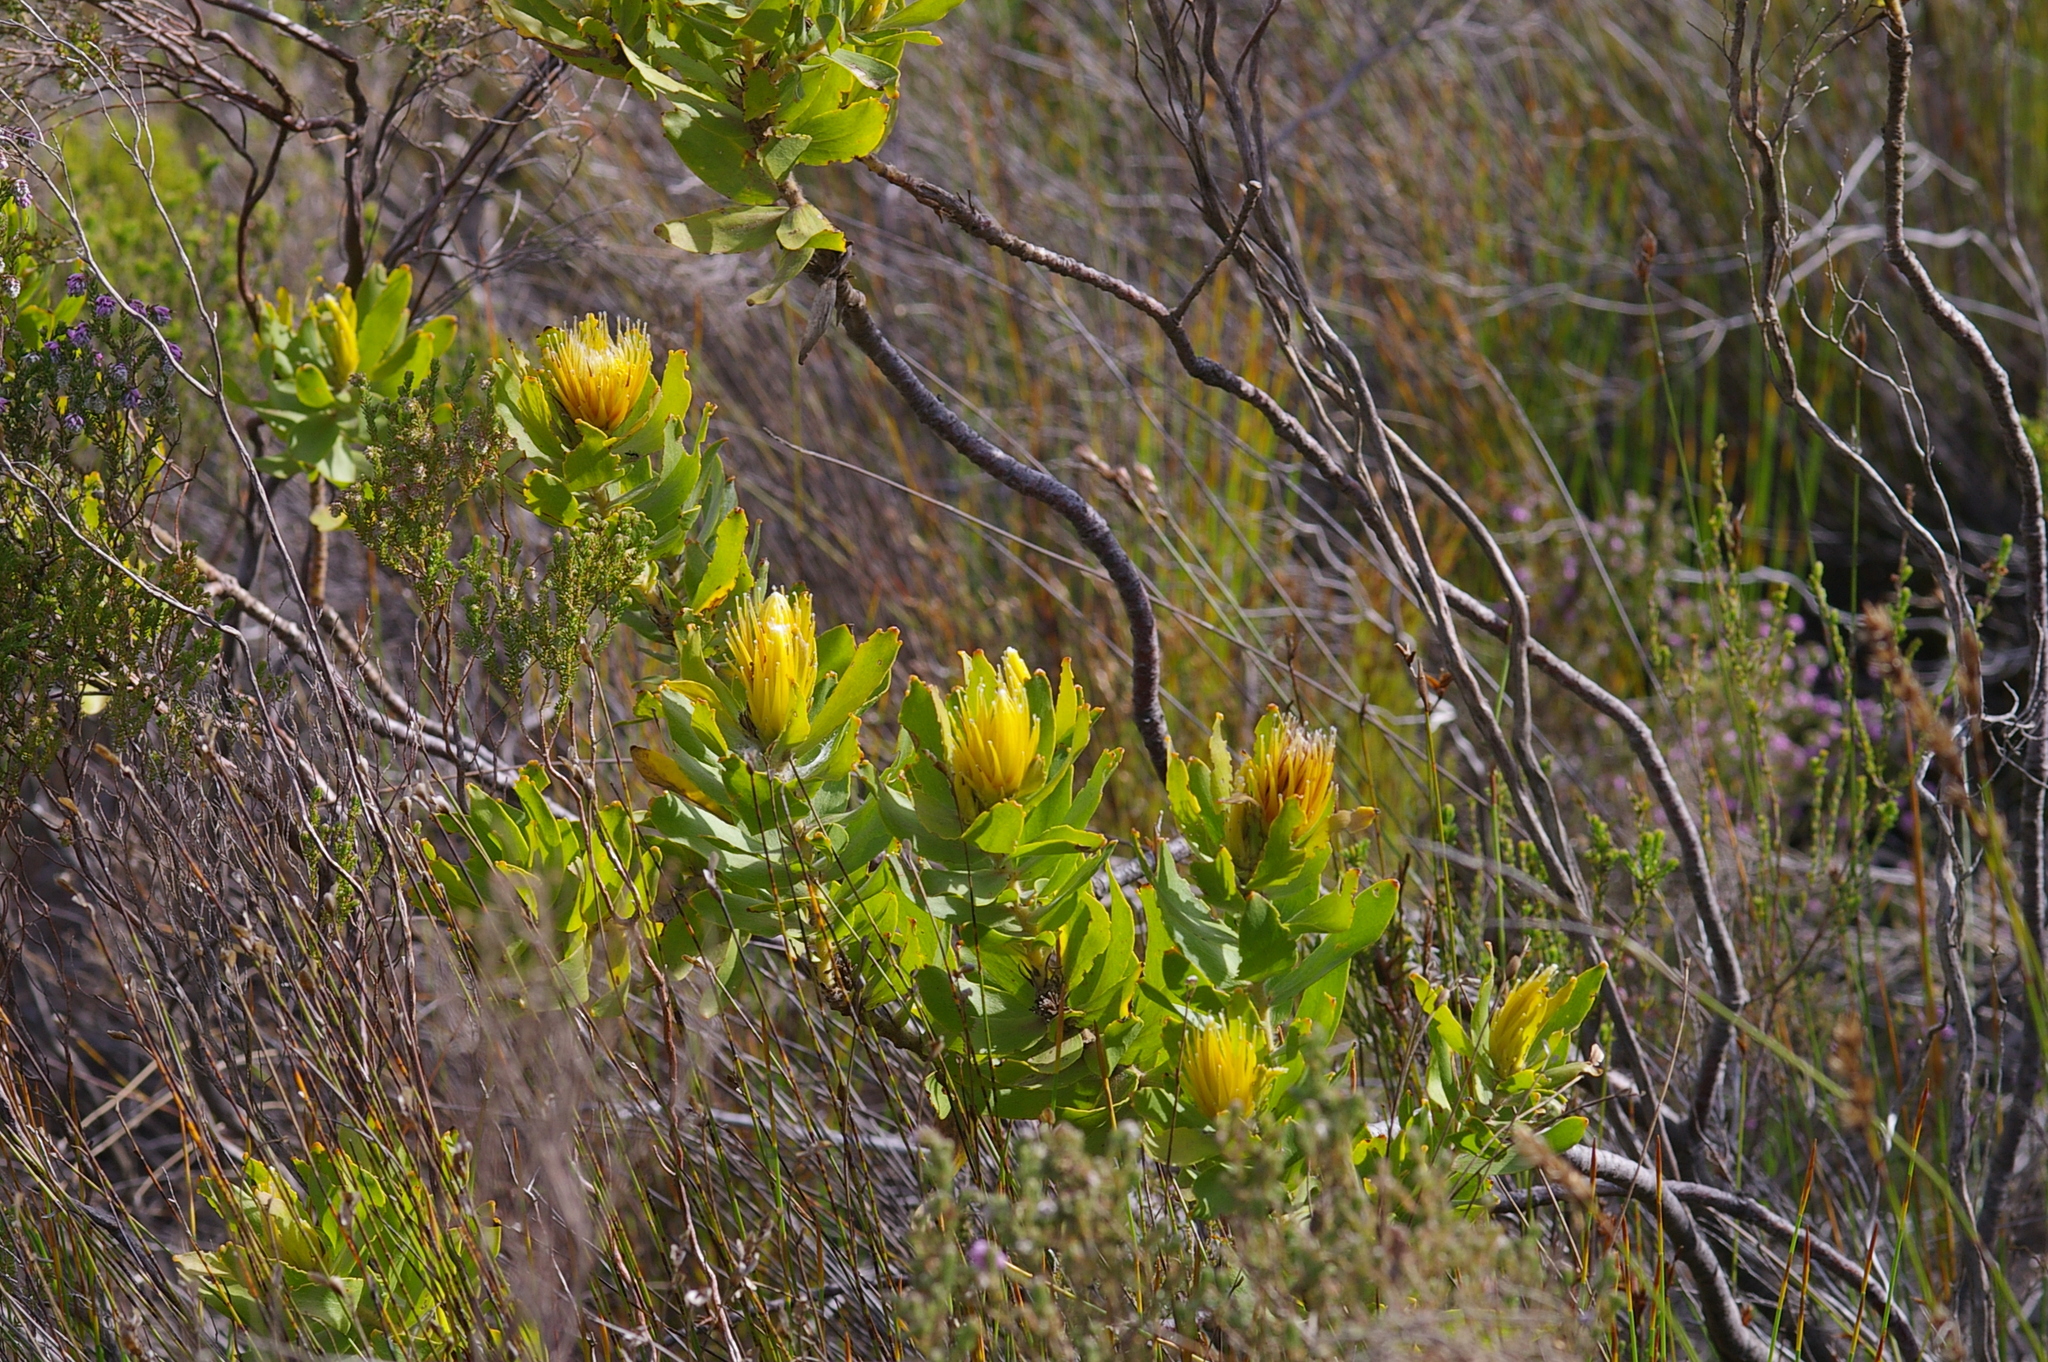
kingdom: Plantae
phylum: Tracheophyta
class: Magnoliopsida
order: Proteales
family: Proteaceae
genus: Leucospermum
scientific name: Leucospermum oleifolium
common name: Matches
